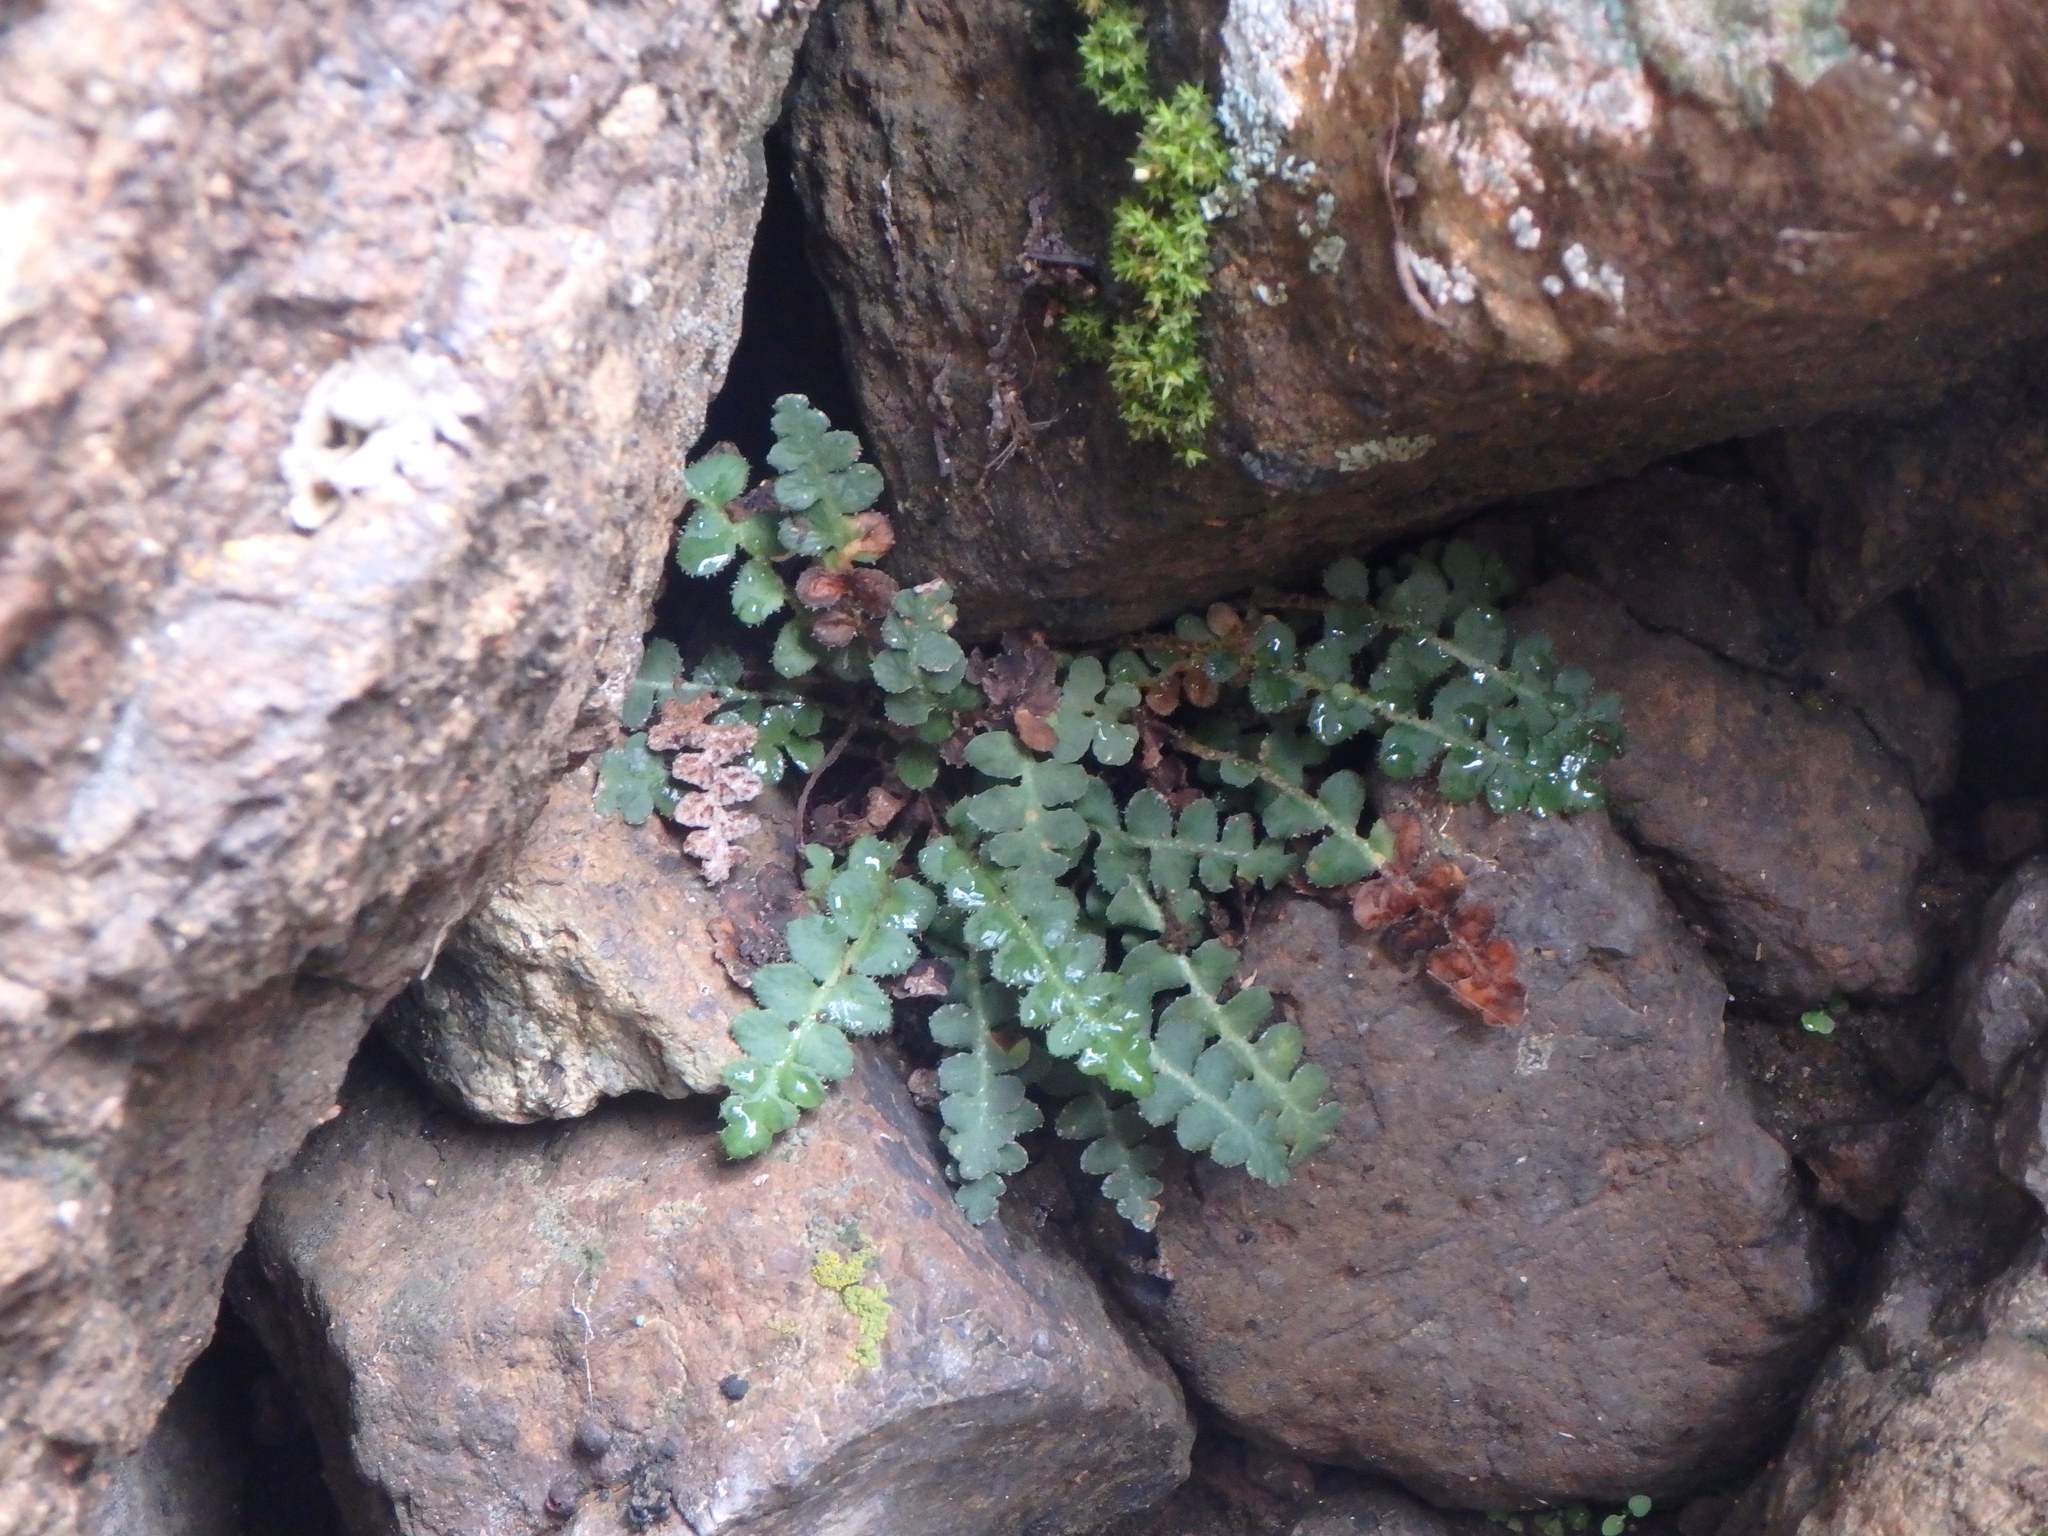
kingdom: Plantae
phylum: Tracheophyta
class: Polypodiopsida
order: Polypodiales
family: Aspleniaceae
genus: Asplenium
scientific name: Asplenium ceterach
